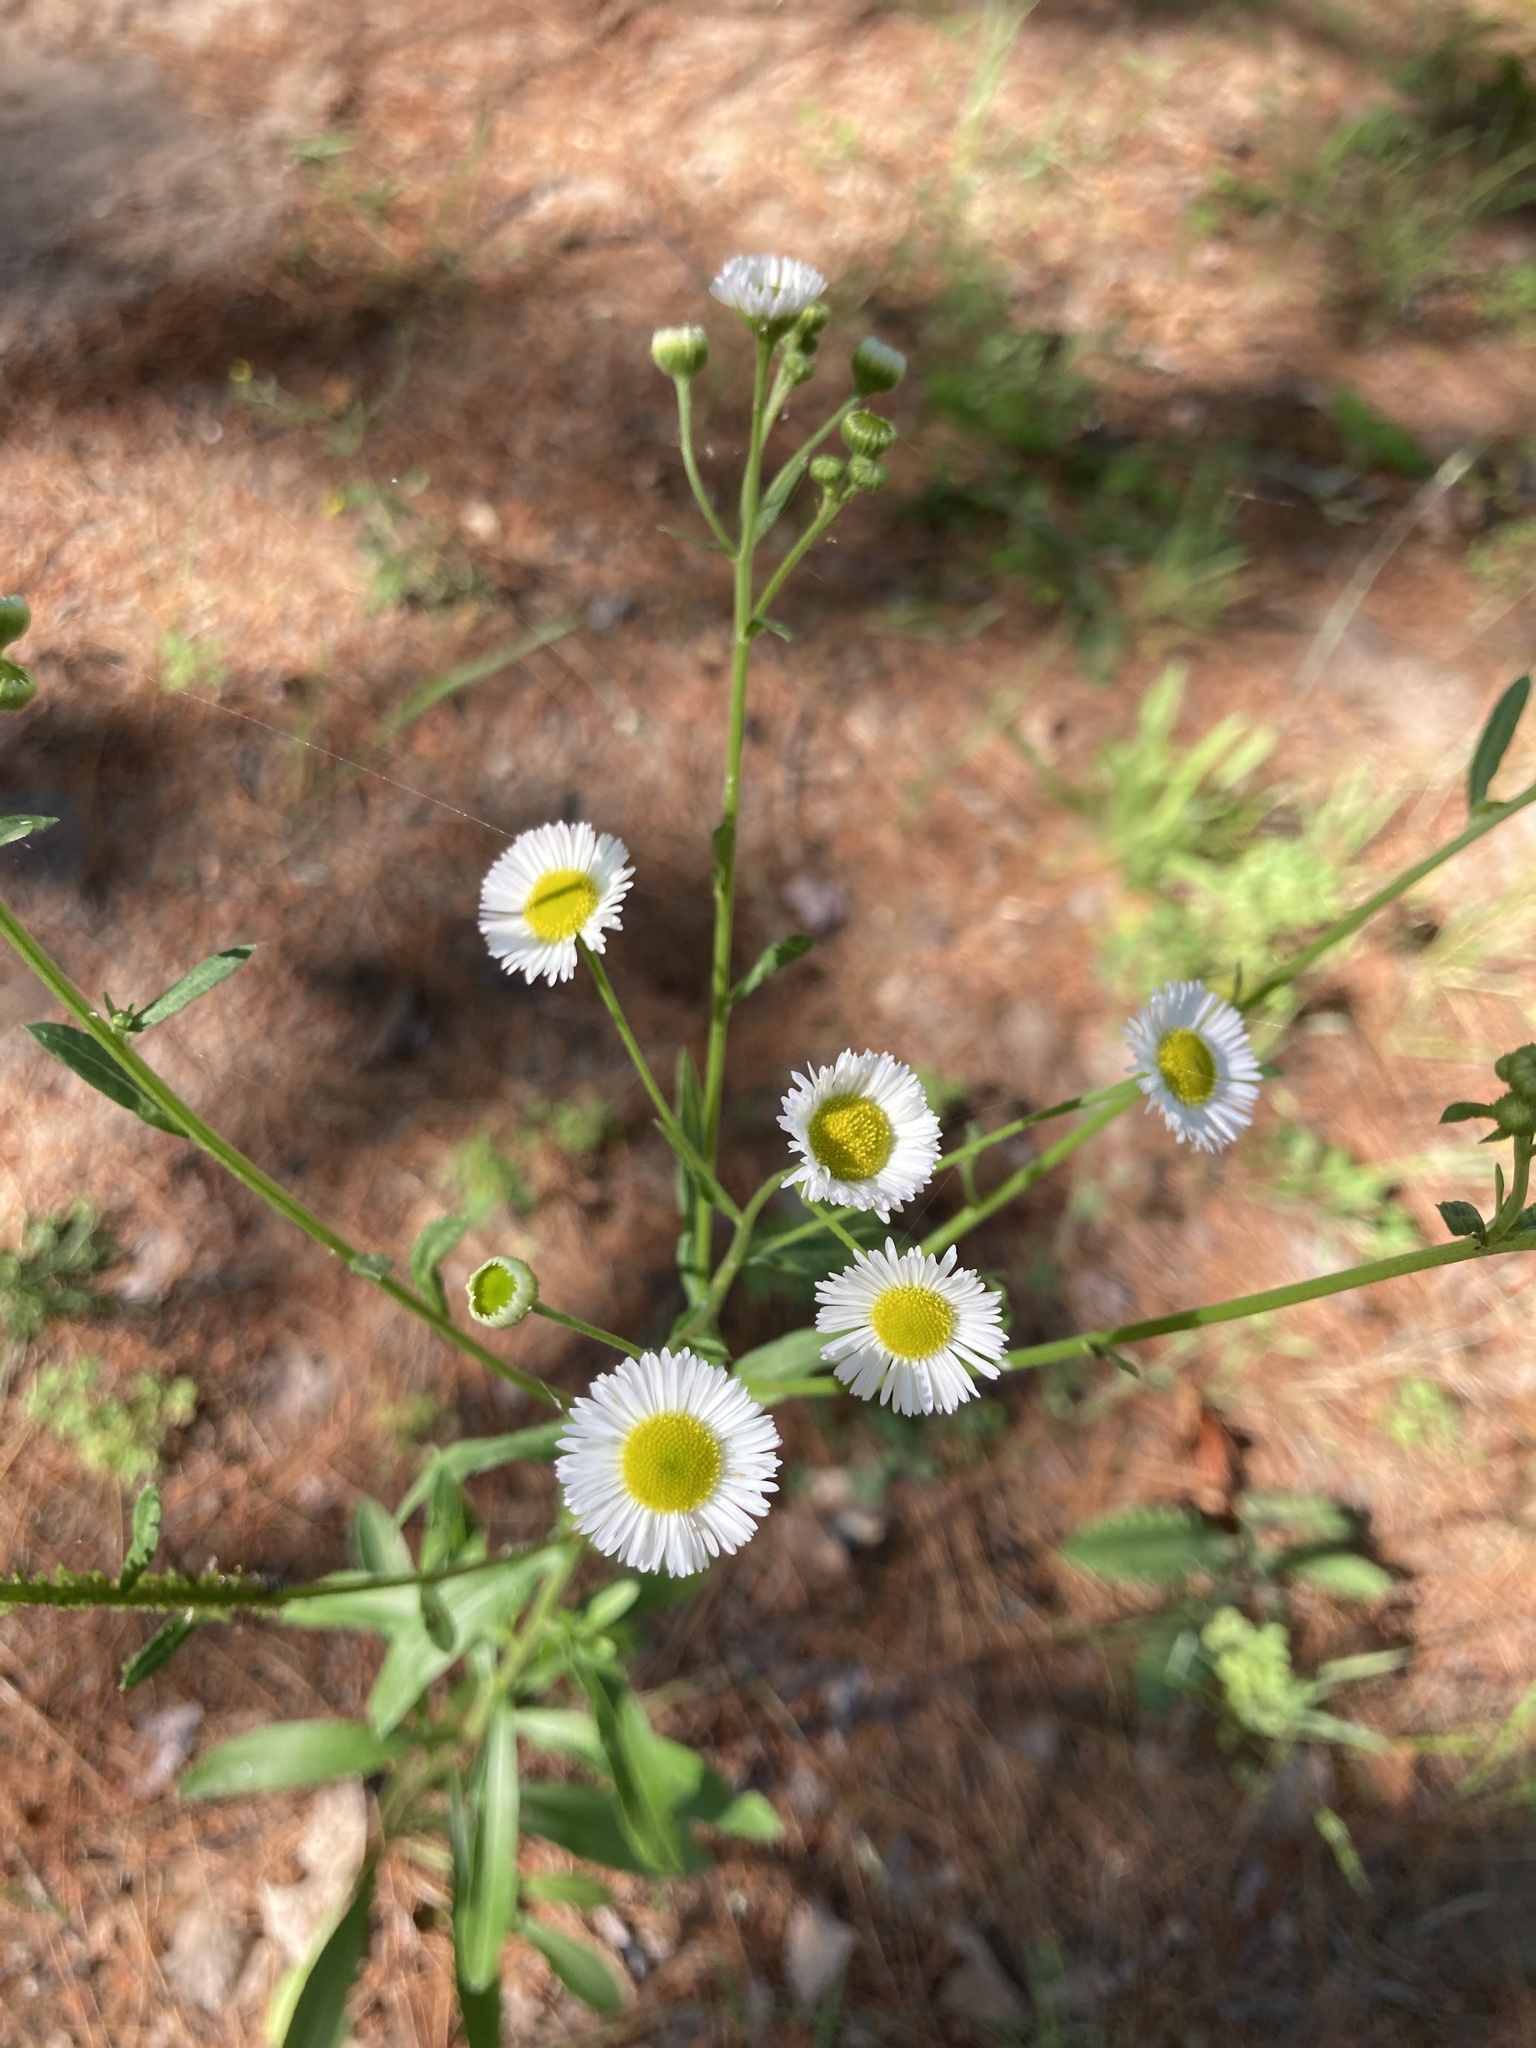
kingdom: Plantae
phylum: Tracheophyta
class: Magnoliopsida
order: Asterales
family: Asteraceae
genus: Erigeron
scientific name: Erigeron strigosus
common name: Common eastern fleabane
